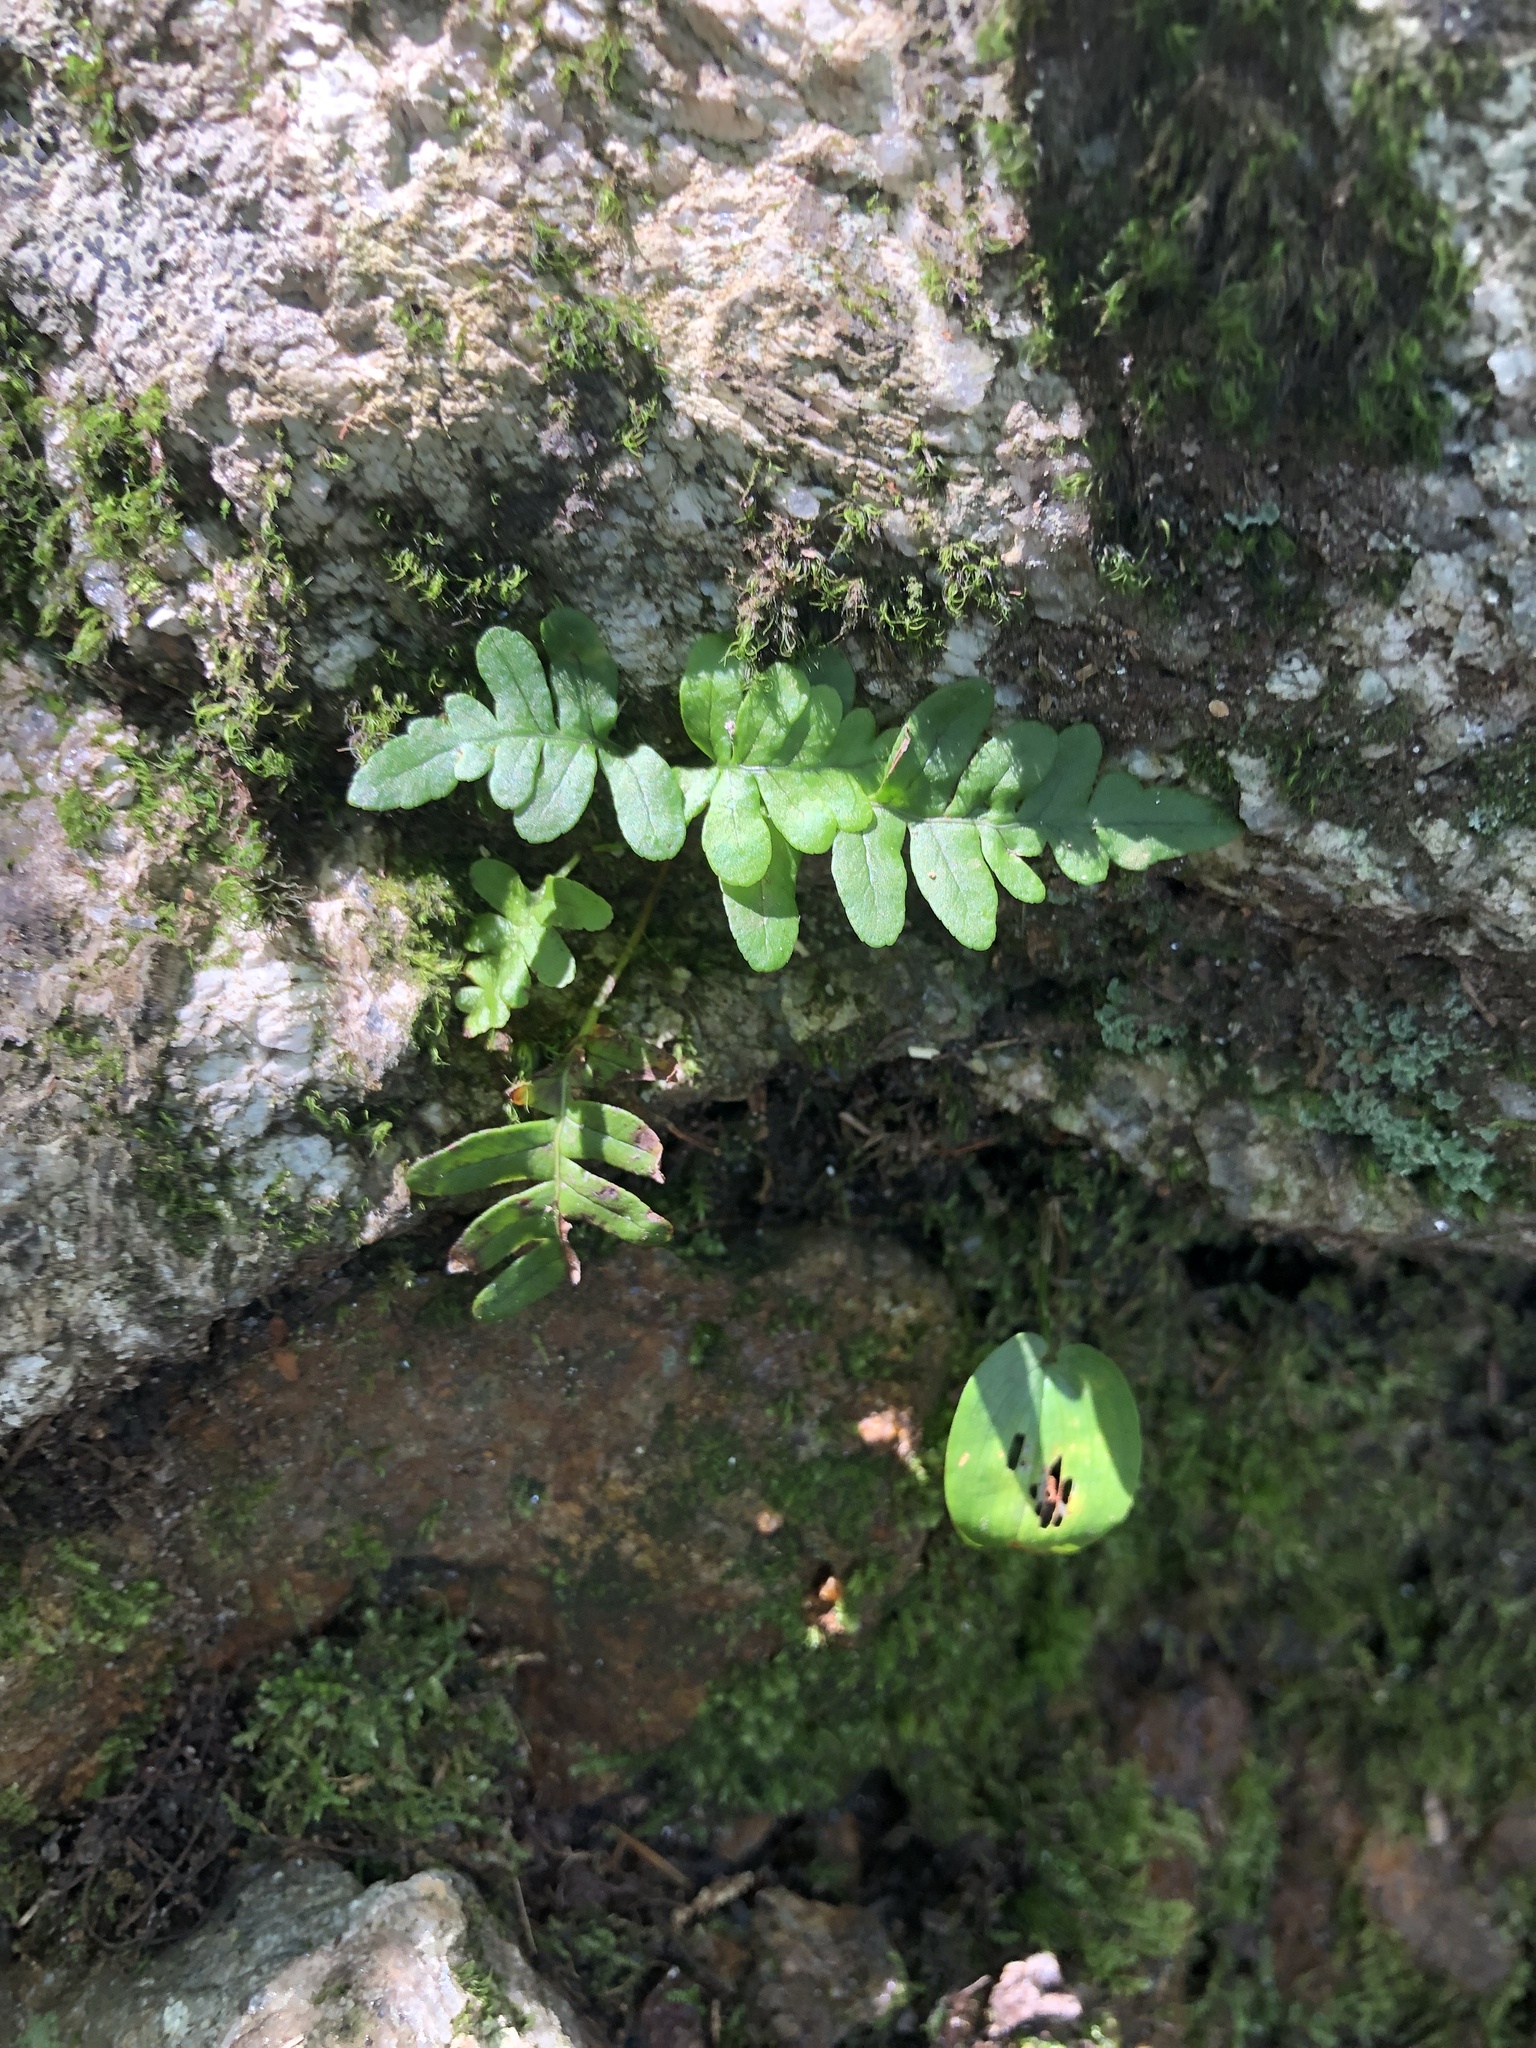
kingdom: Plantae
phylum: Tracheophyta
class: Polypodiopsida
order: Polypodiales
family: Polypodiaceae
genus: Polypodium
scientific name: Polypodium virginianum
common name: American wall fern
